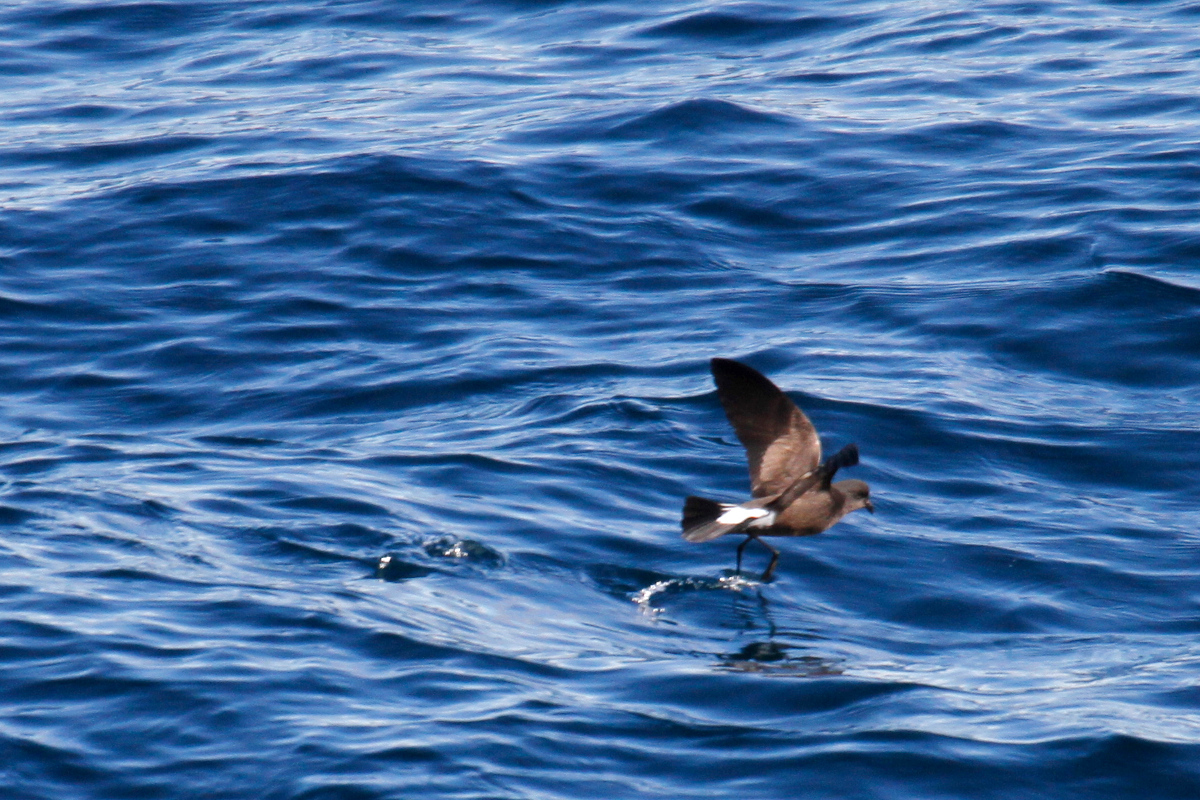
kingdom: Animalia
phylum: Chordata
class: Aves
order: Procellariiformes
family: Hydrobatidae
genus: Oceanites
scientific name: Oceanites oceanicus
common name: Wilson's storm petrel
